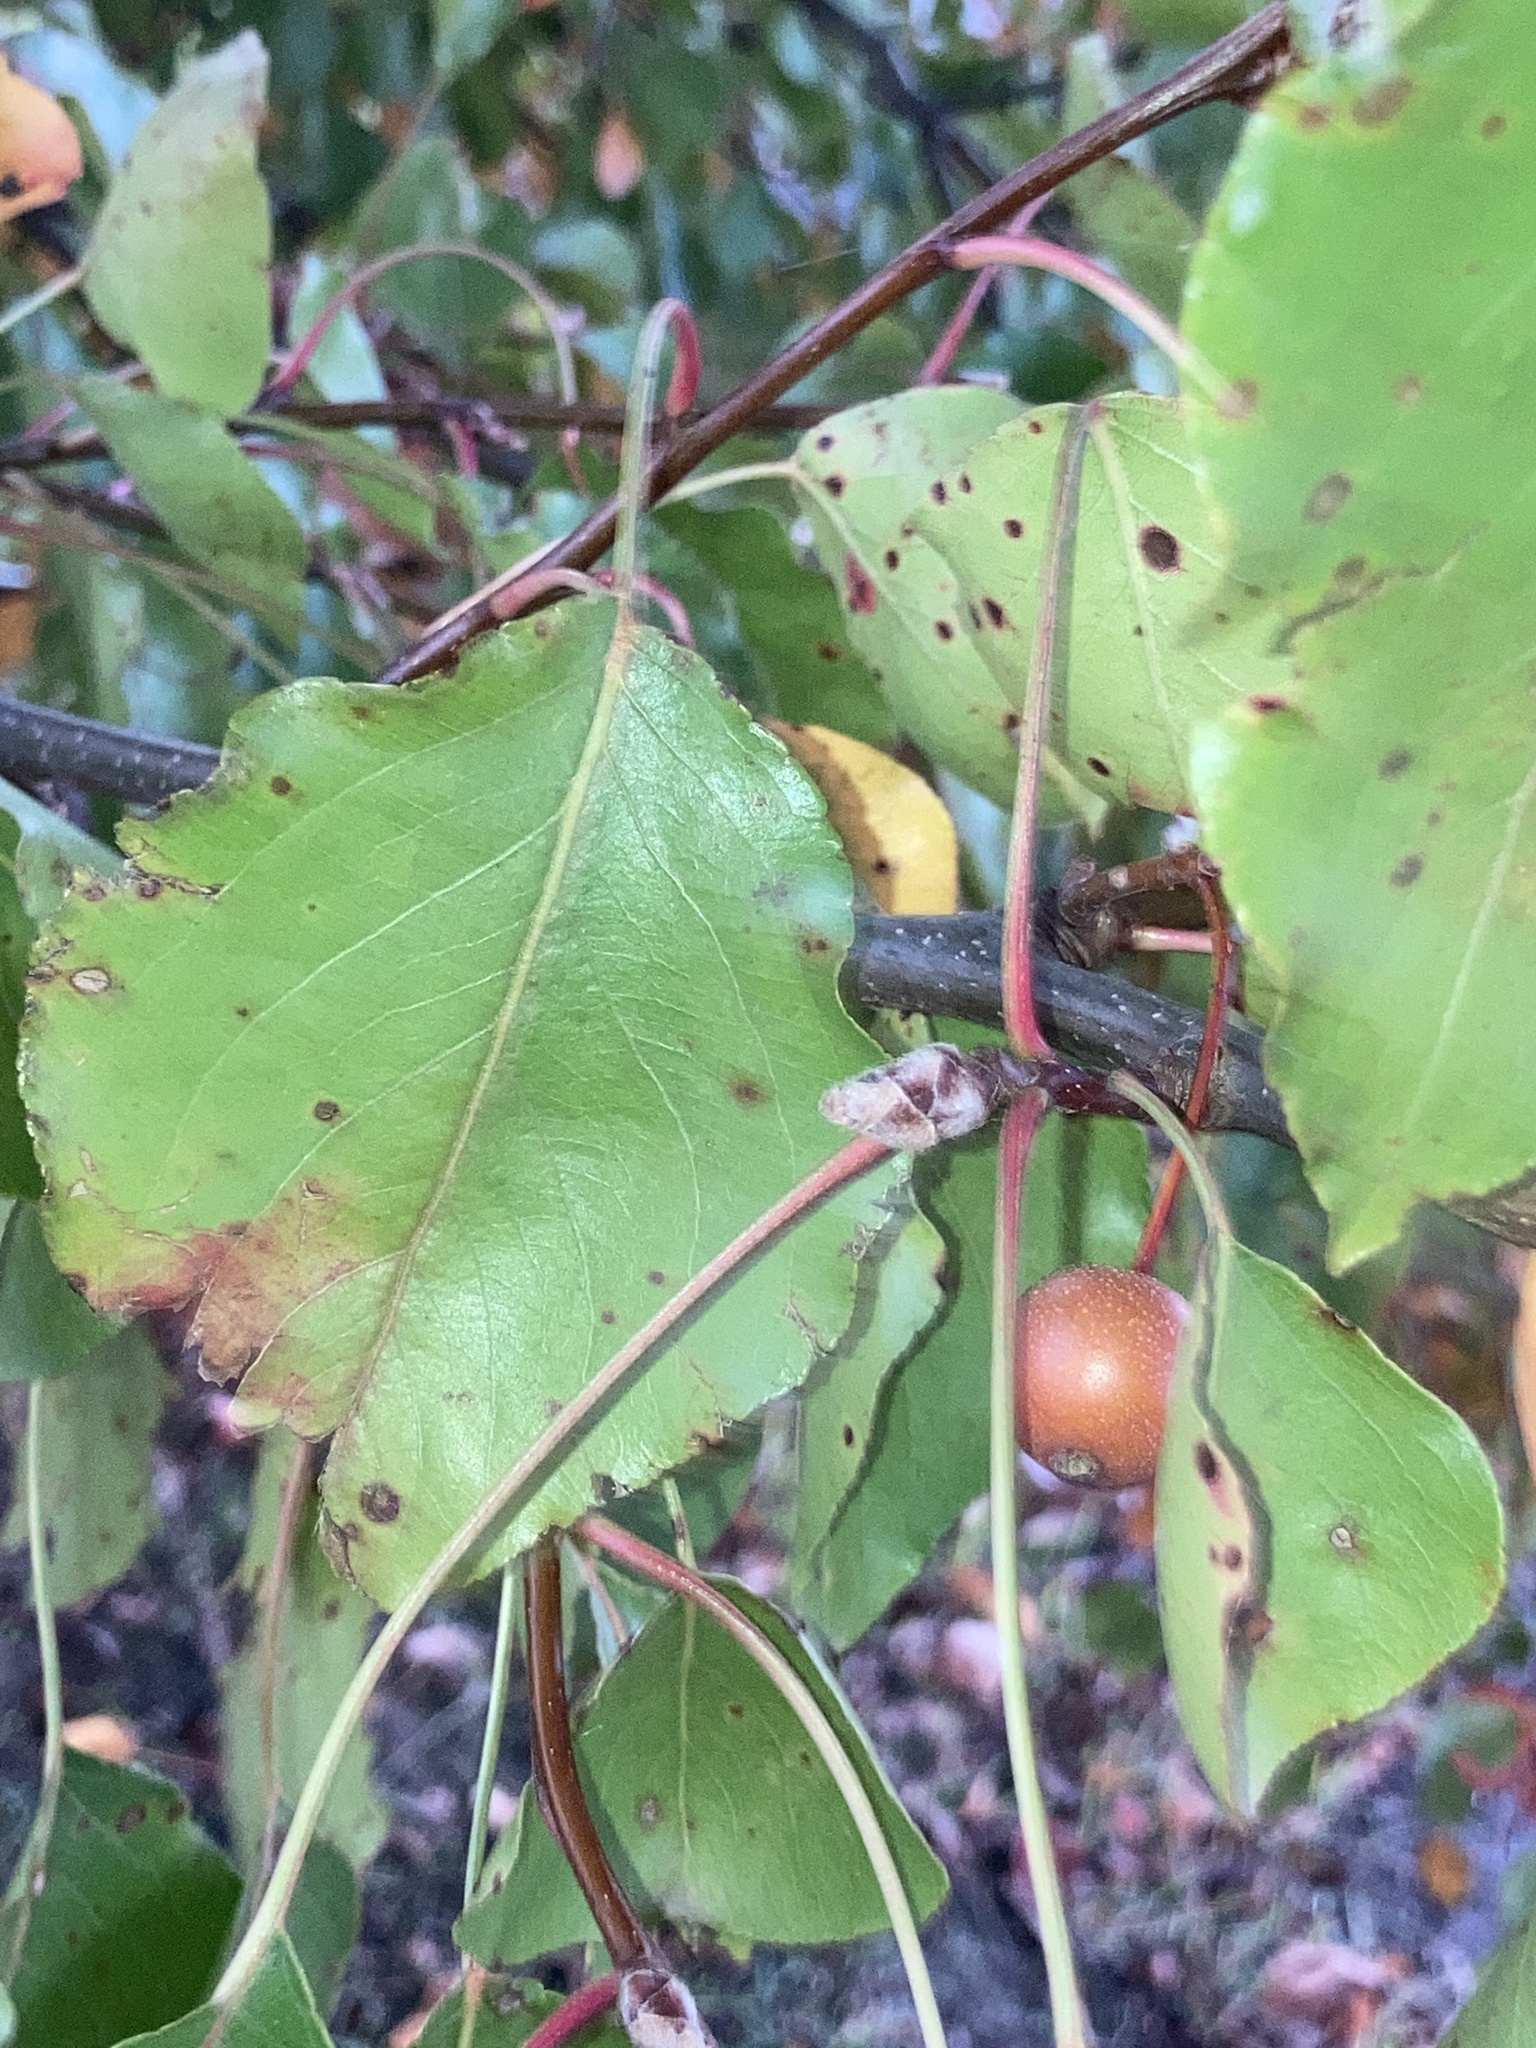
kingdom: Plantae
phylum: Tracheophyta
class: Magnoliopsida
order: Rosales
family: Rosaceae
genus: Pyrus
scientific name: Pyrus calleryana
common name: Callery pear
